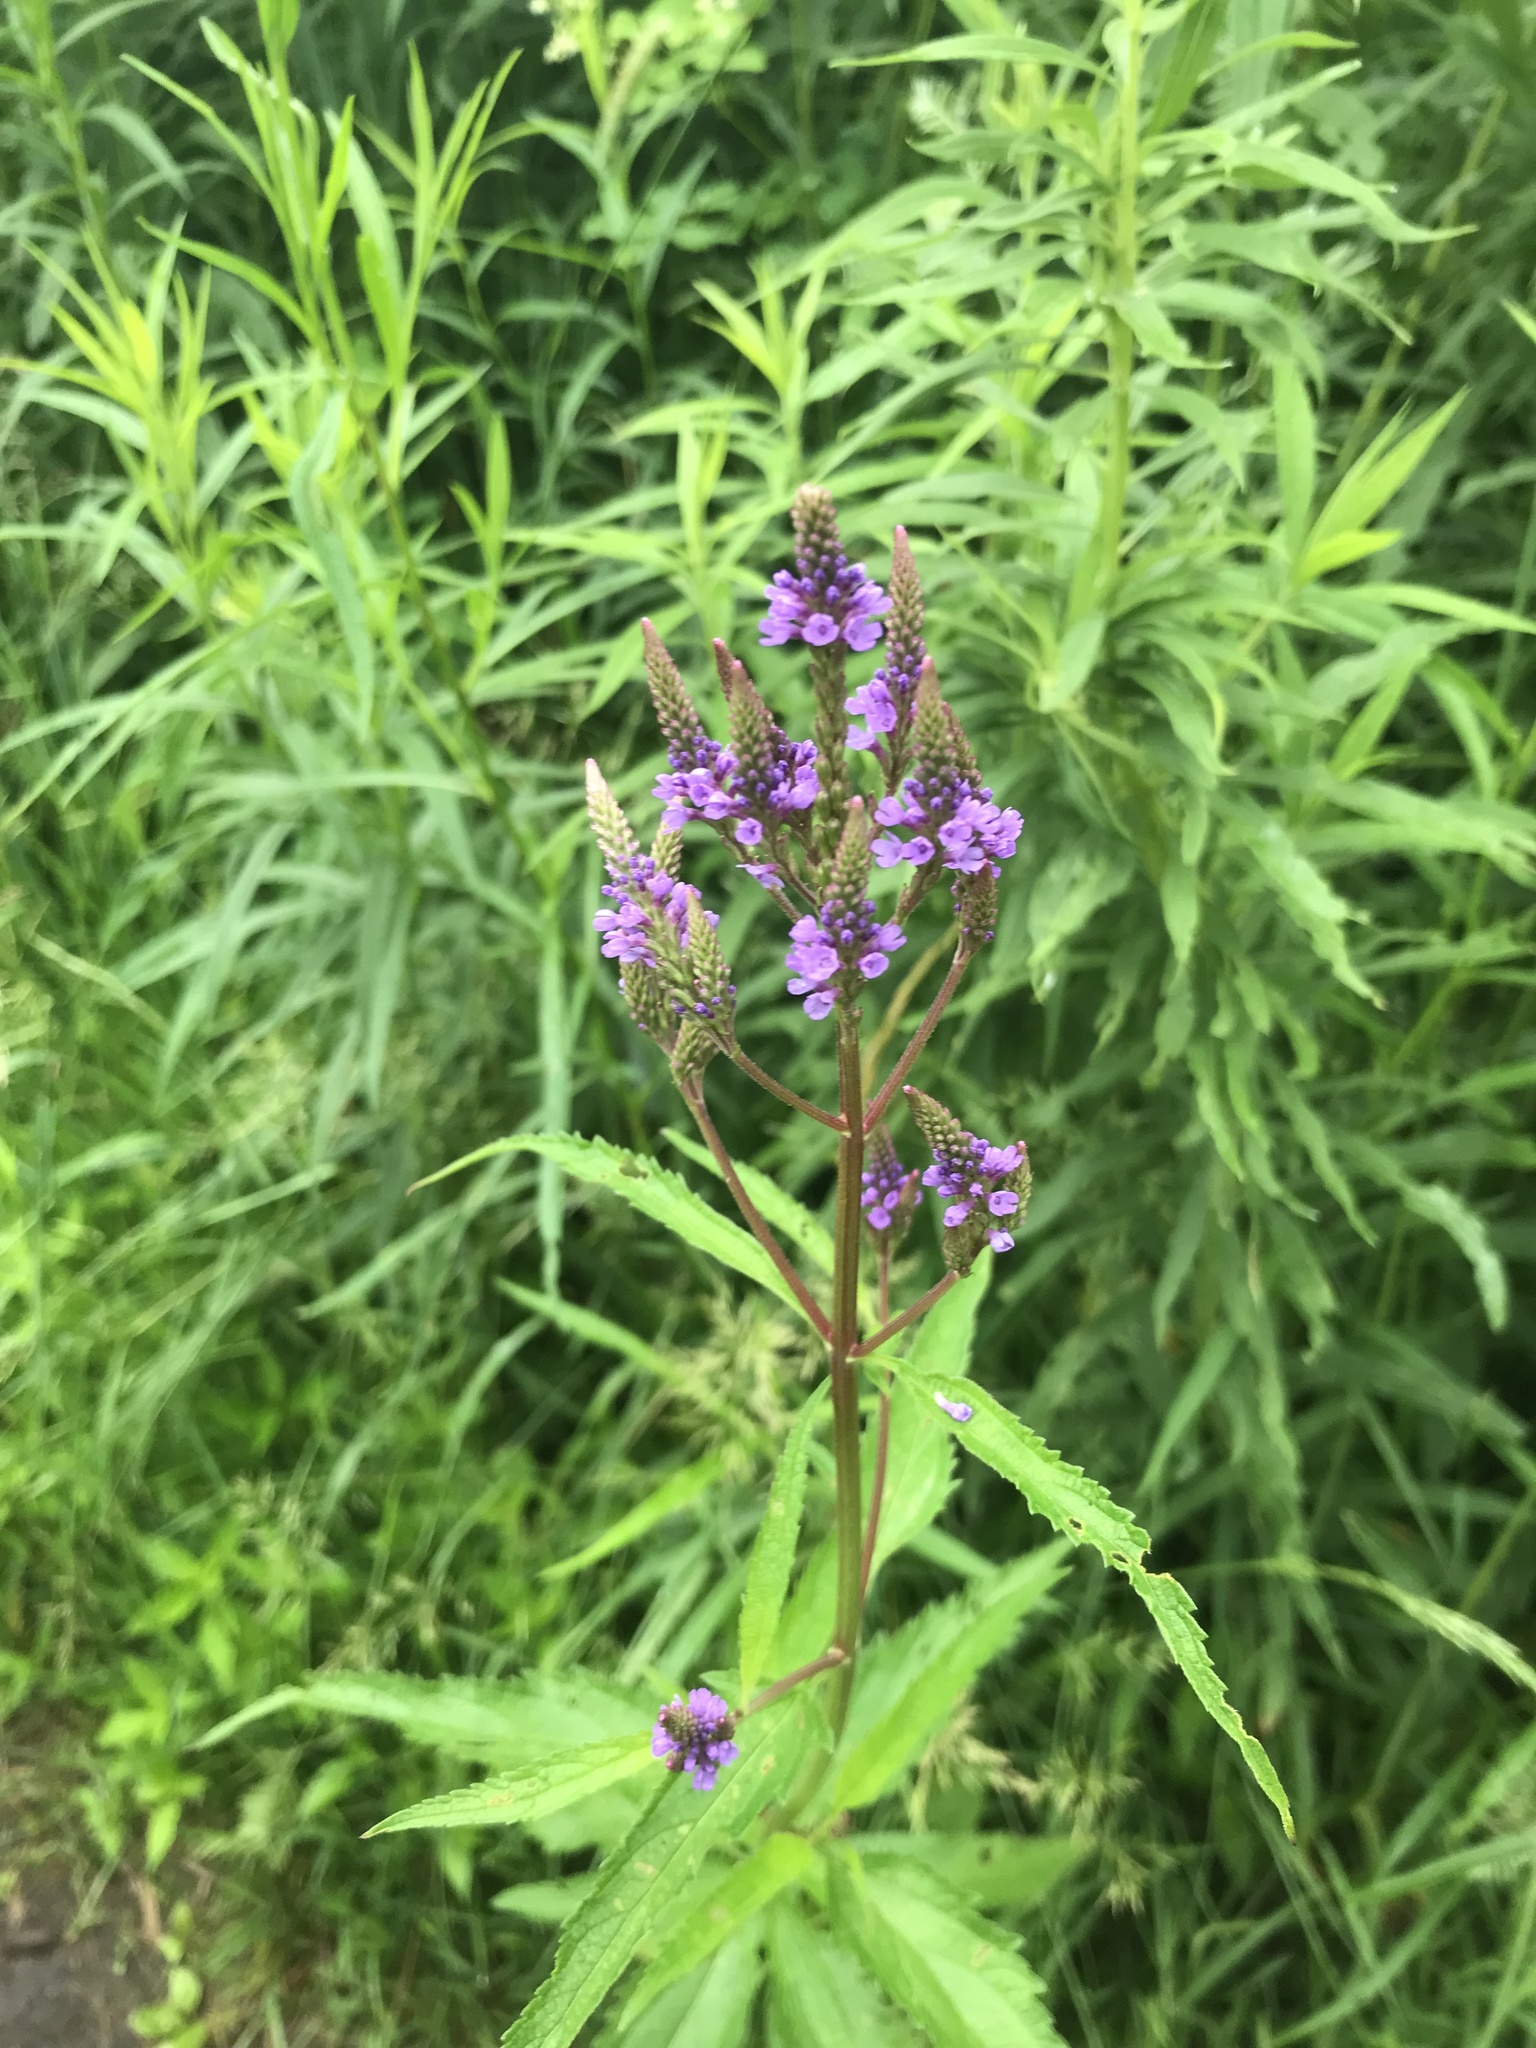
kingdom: Plantae
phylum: Tracheophyta
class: Magnoliopsida
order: Lamiales
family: Verbenaceae
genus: Verbena
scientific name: Verbena hastata
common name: American blue vervain
